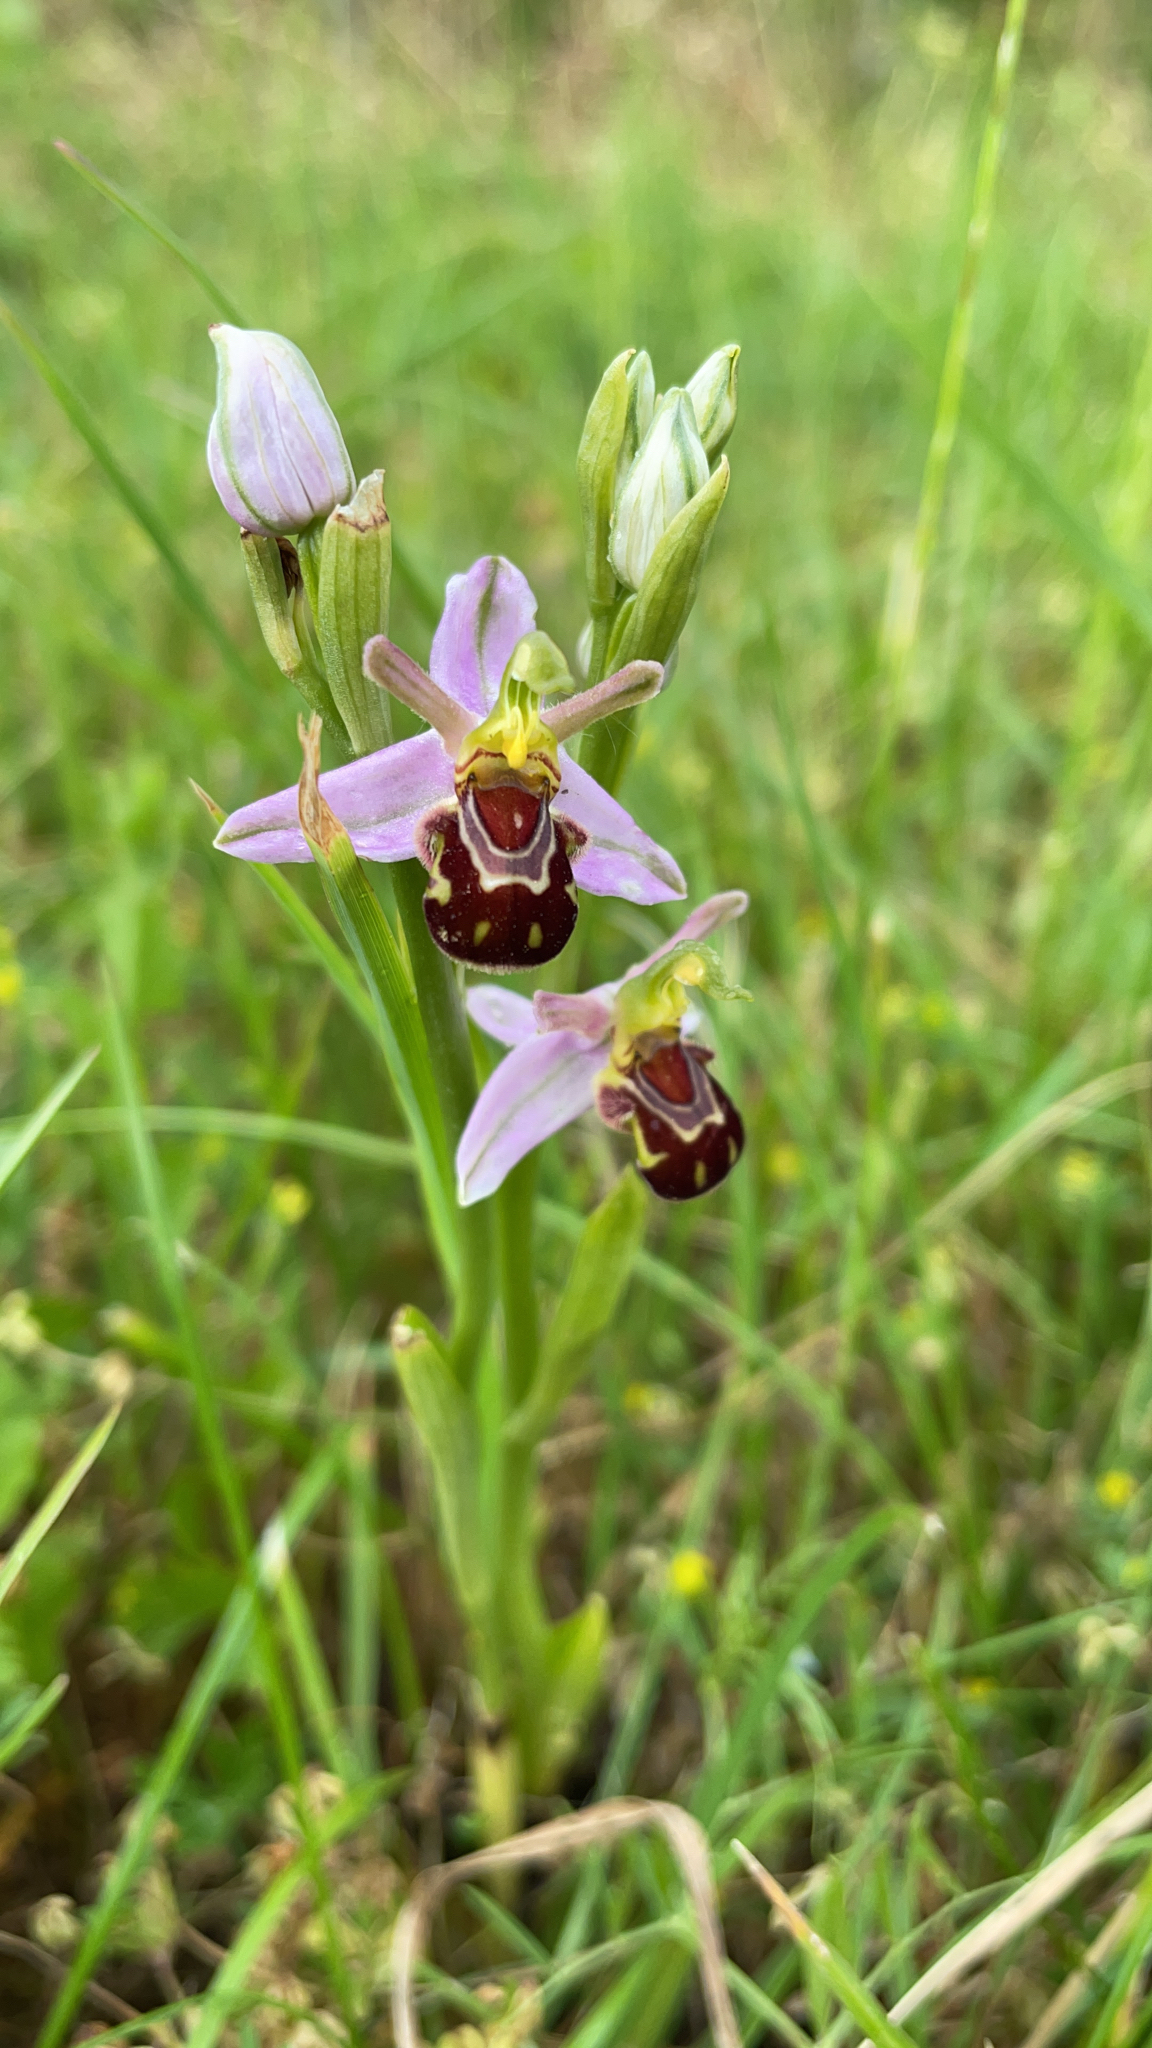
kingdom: Plantae
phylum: Tracheophyta
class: Liliopsida
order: Asparagales
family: Orchidaceae
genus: Ophrys
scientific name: Ophrys apifera
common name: Bee orchid
